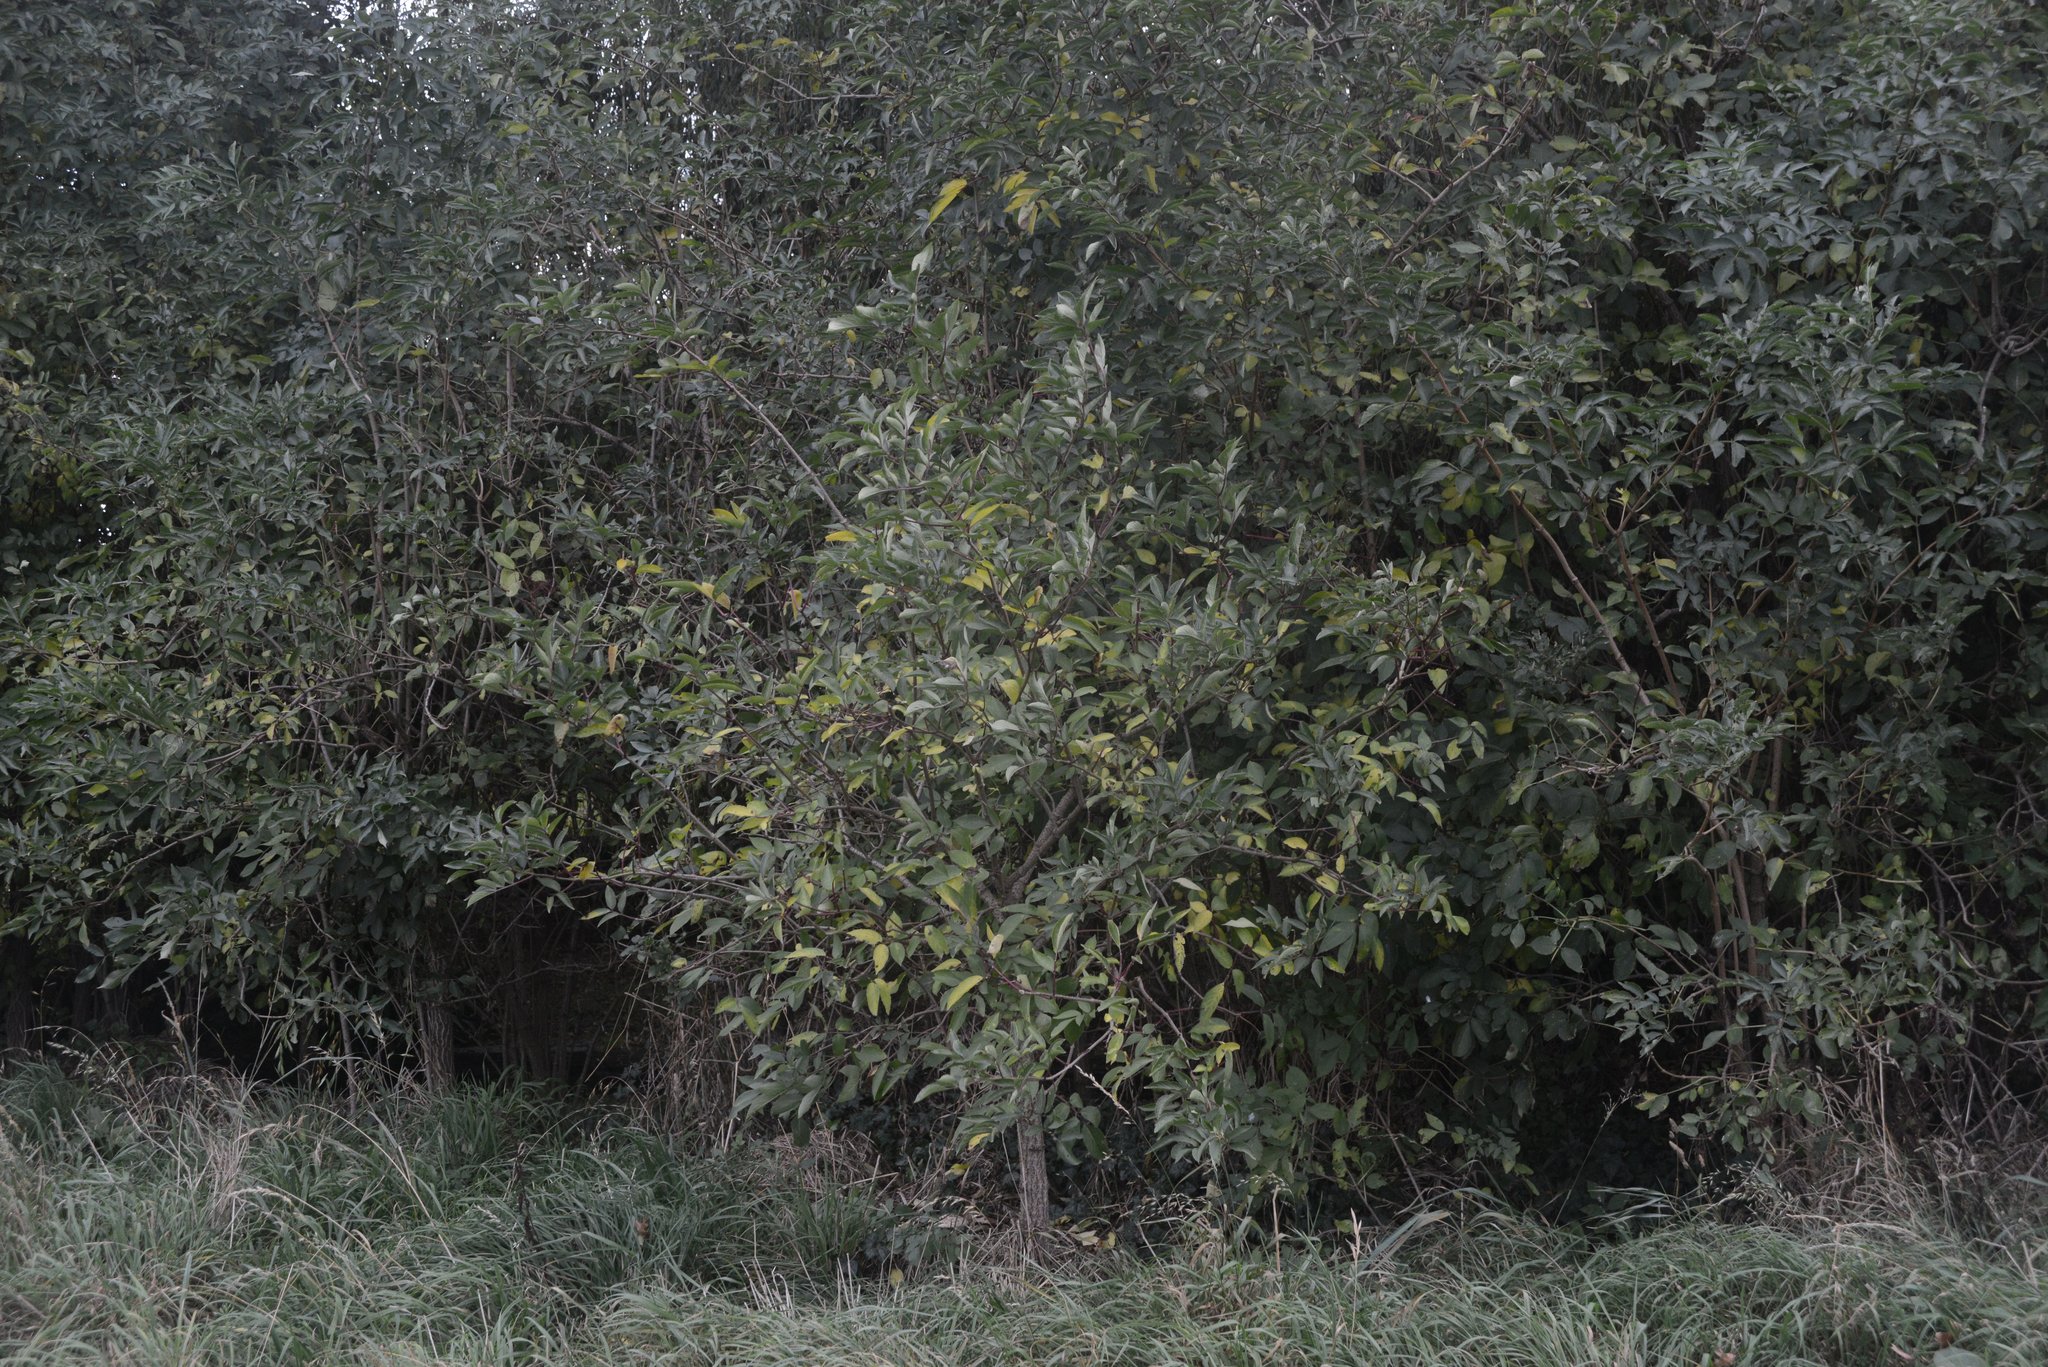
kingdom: Plantae
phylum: Tracheophyta
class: Magnoliopsida
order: Dipsacales
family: Viburnaceae
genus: Sambucus
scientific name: Sambucus nigra
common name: Elder
